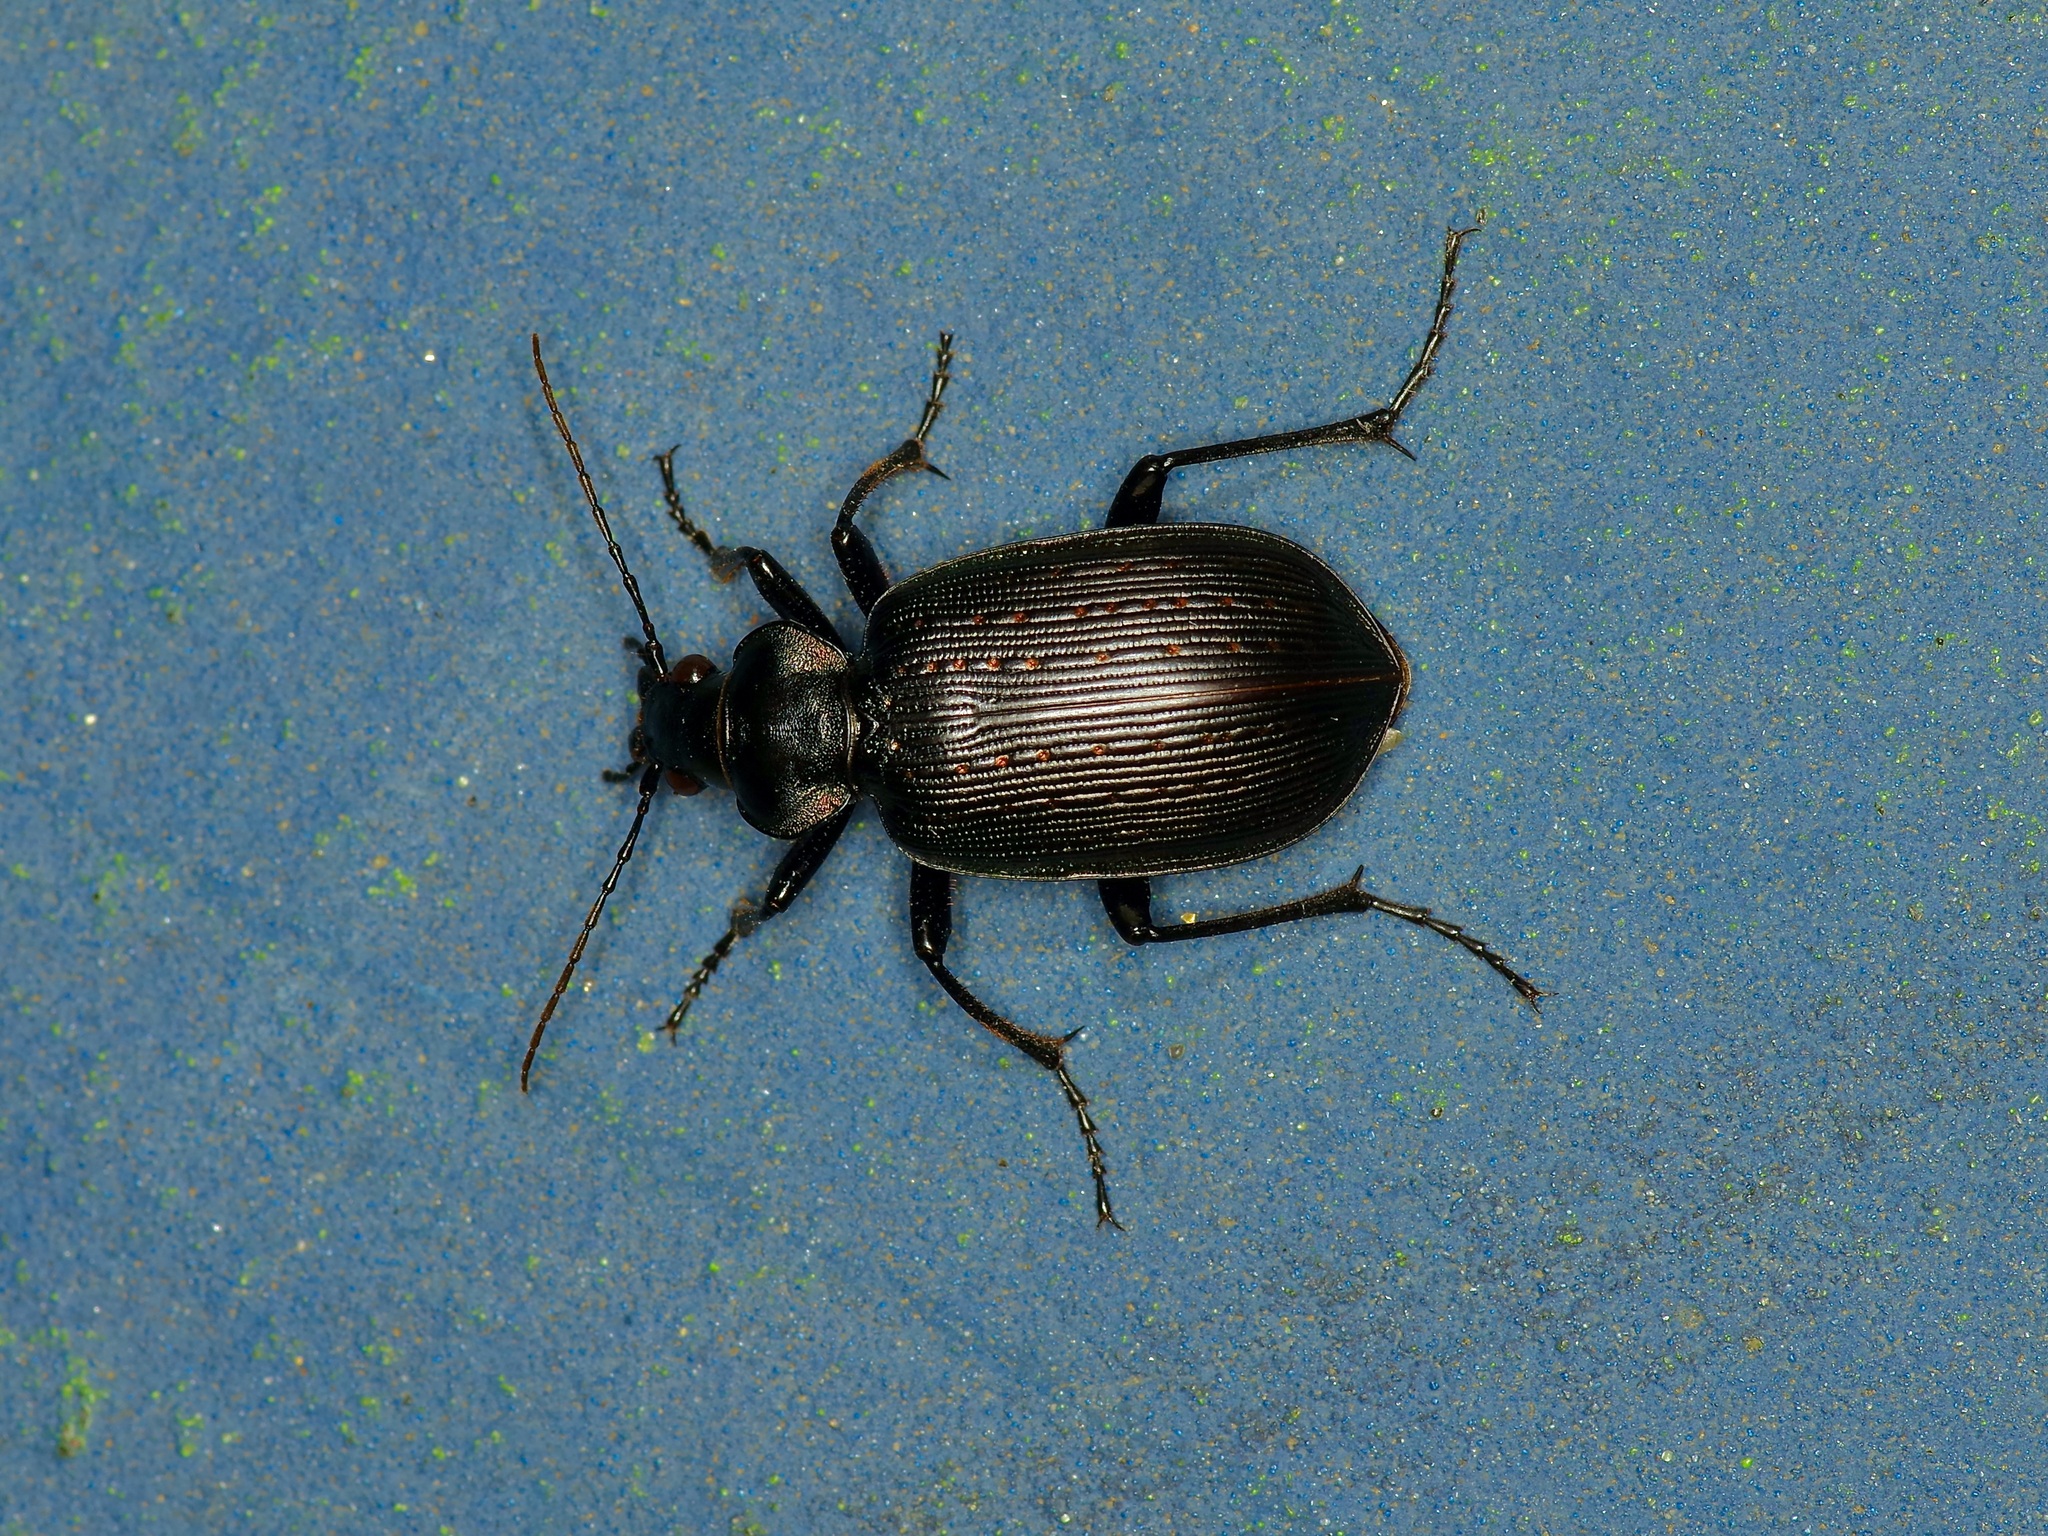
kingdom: Animalia
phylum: Arthropoda
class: Insecta
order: Coleoptera
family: Carabidae
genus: Calosoma
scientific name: Calosoma sayi
